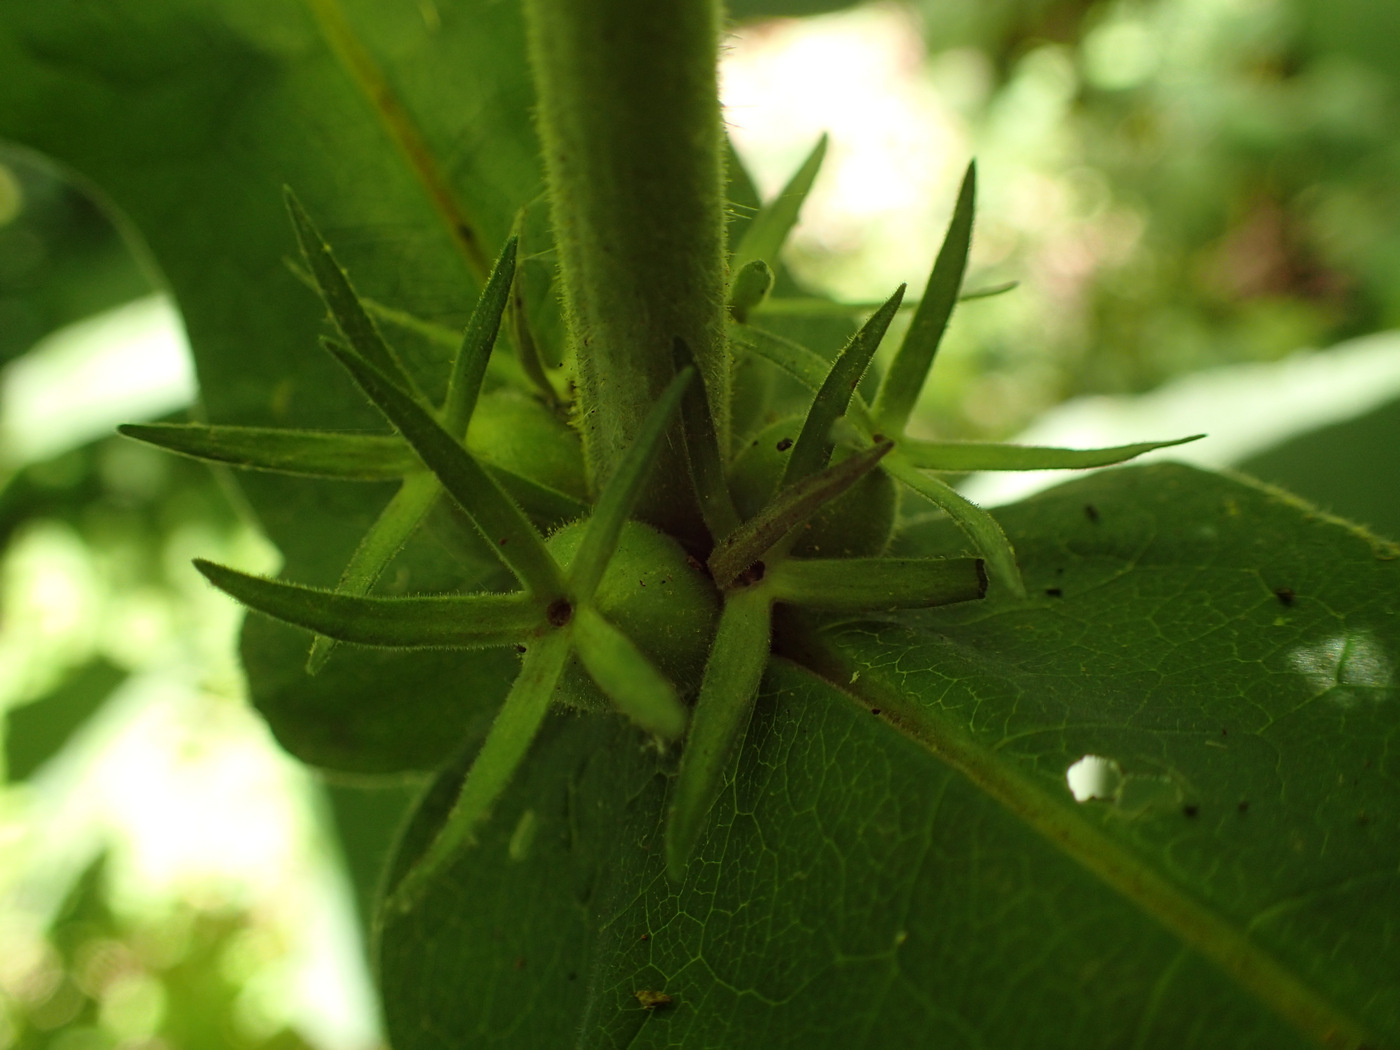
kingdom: Plantae
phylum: Tracheophyta
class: Magnoliopsida
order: Dipsacales
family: Caprifoliaceae
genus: Triosteum
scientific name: Triosteum perfoliatum
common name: Common horse-gentian
